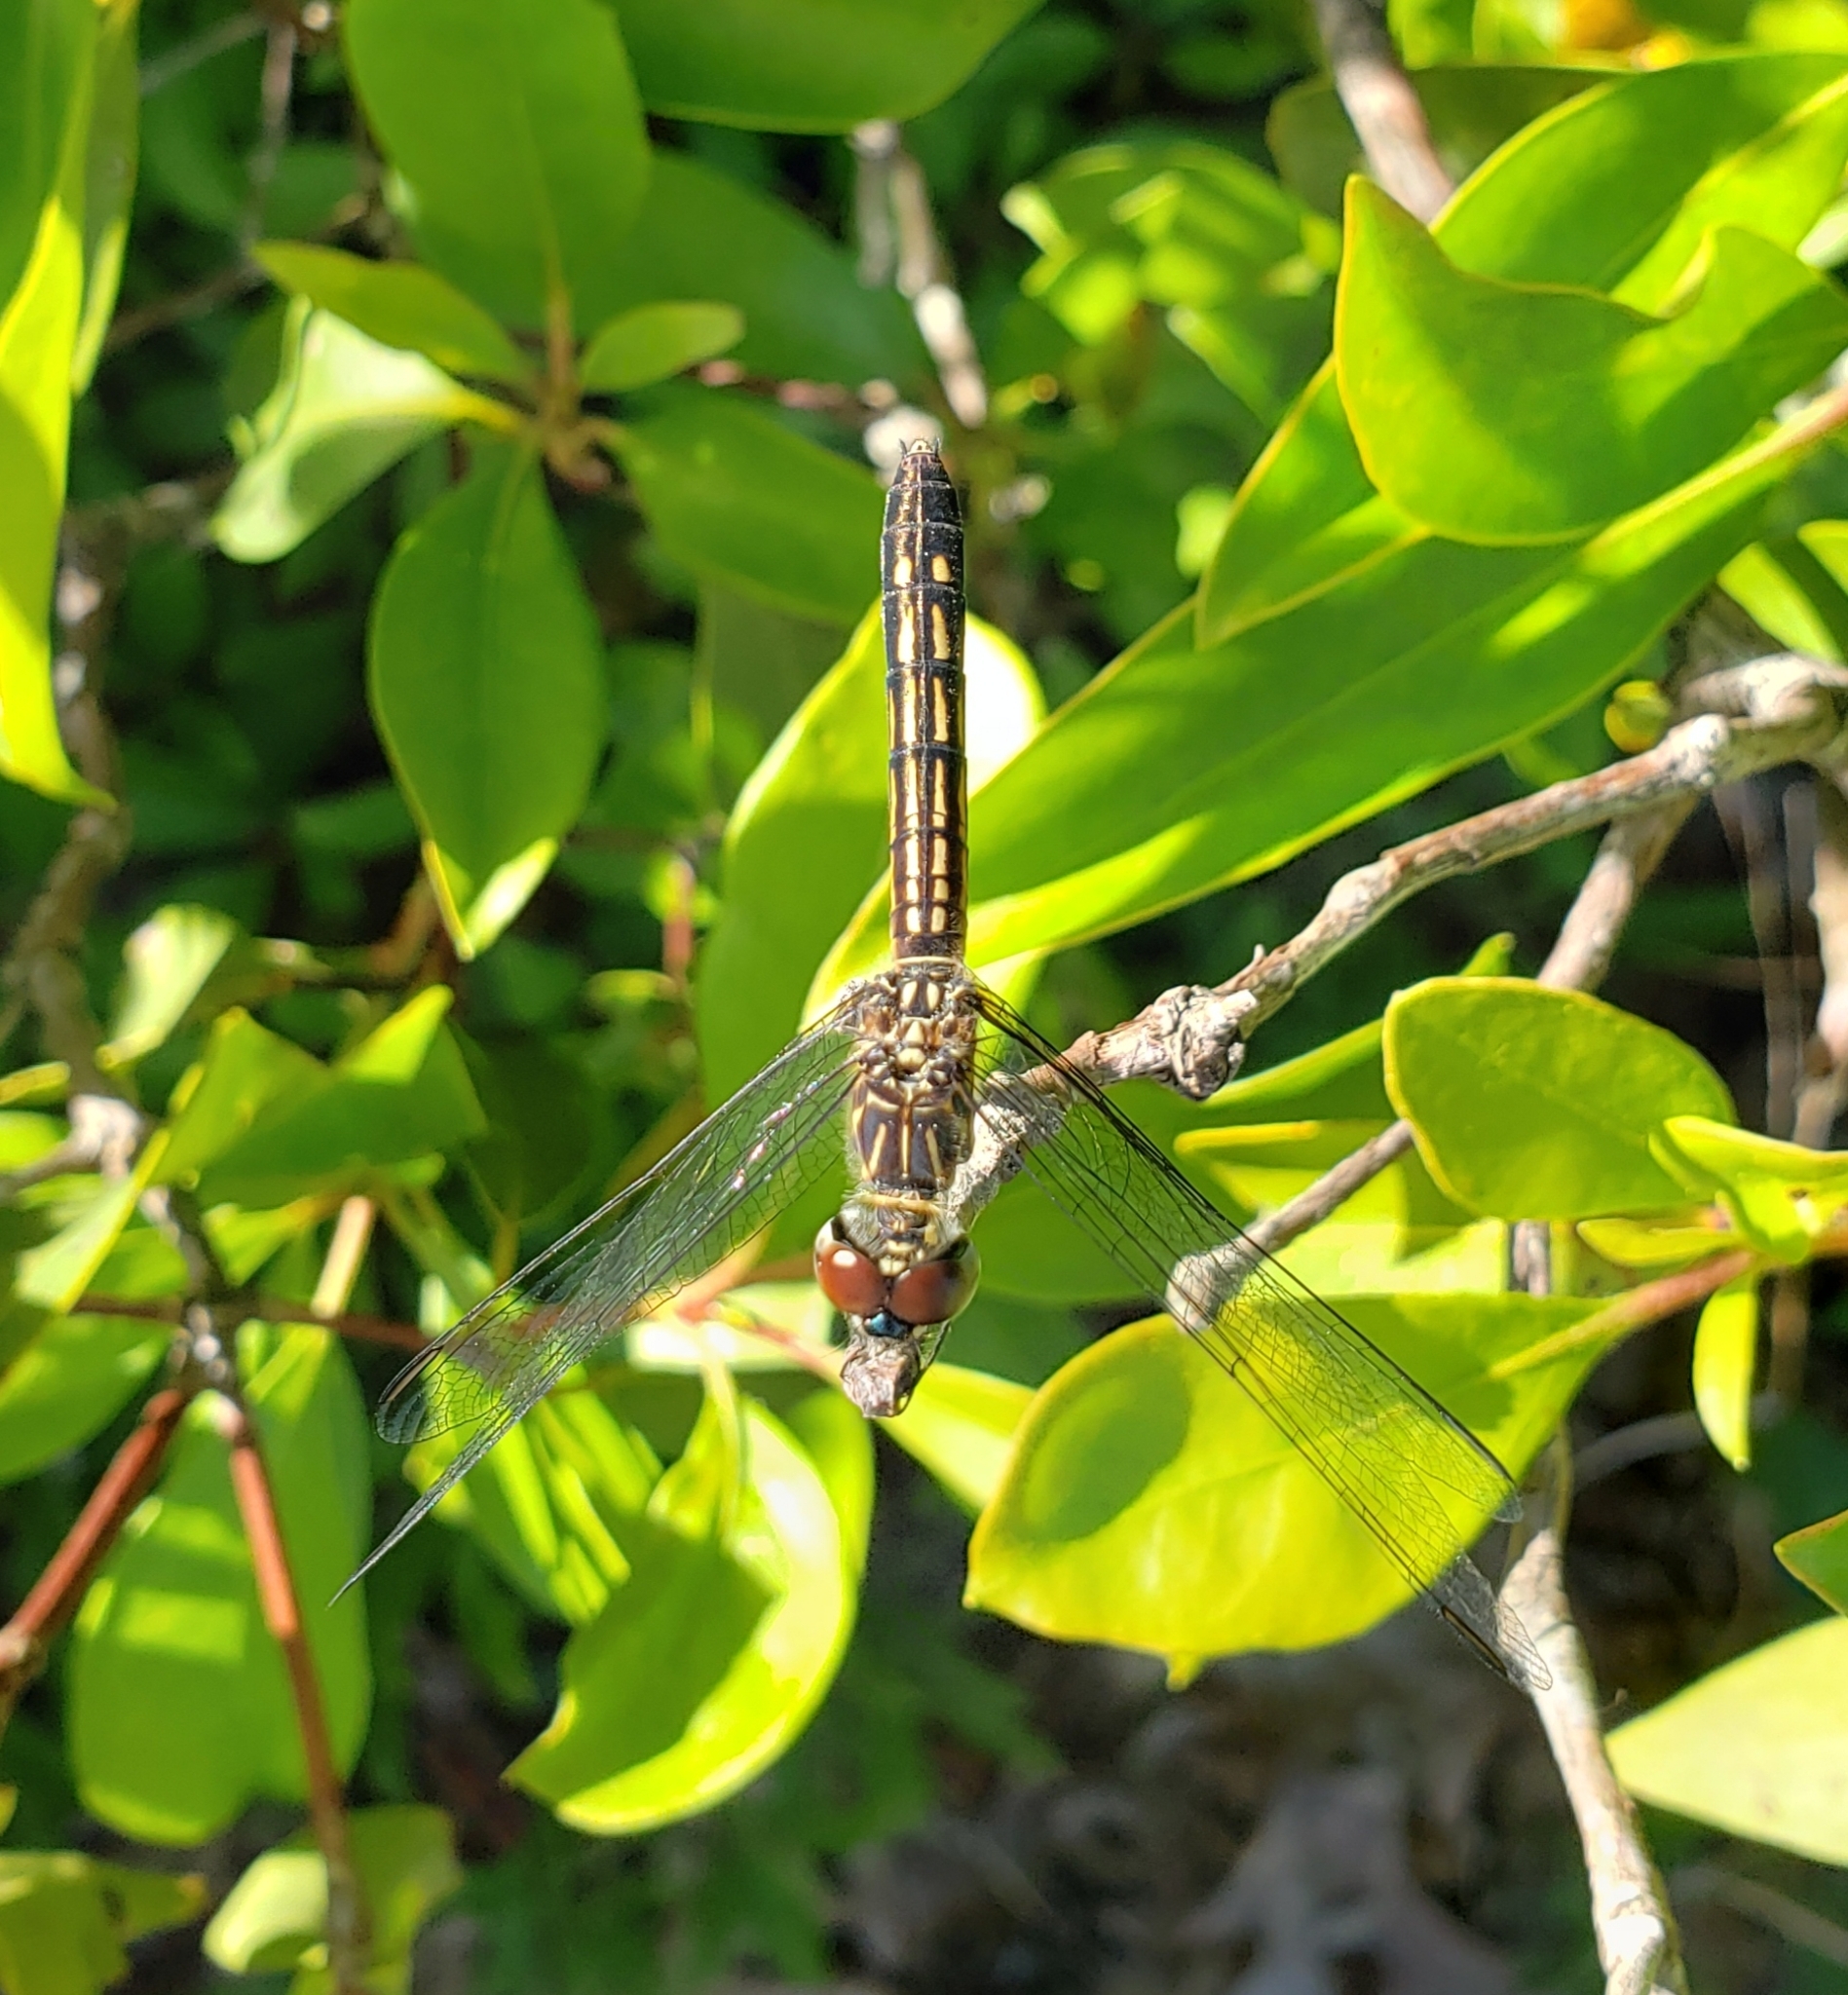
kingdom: Animalia
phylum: Arthropoda
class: Insecta
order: Odonata
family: Libellulidae
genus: Pachydiplax
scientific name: Pachydiplax longipennis
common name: Blue dasher
